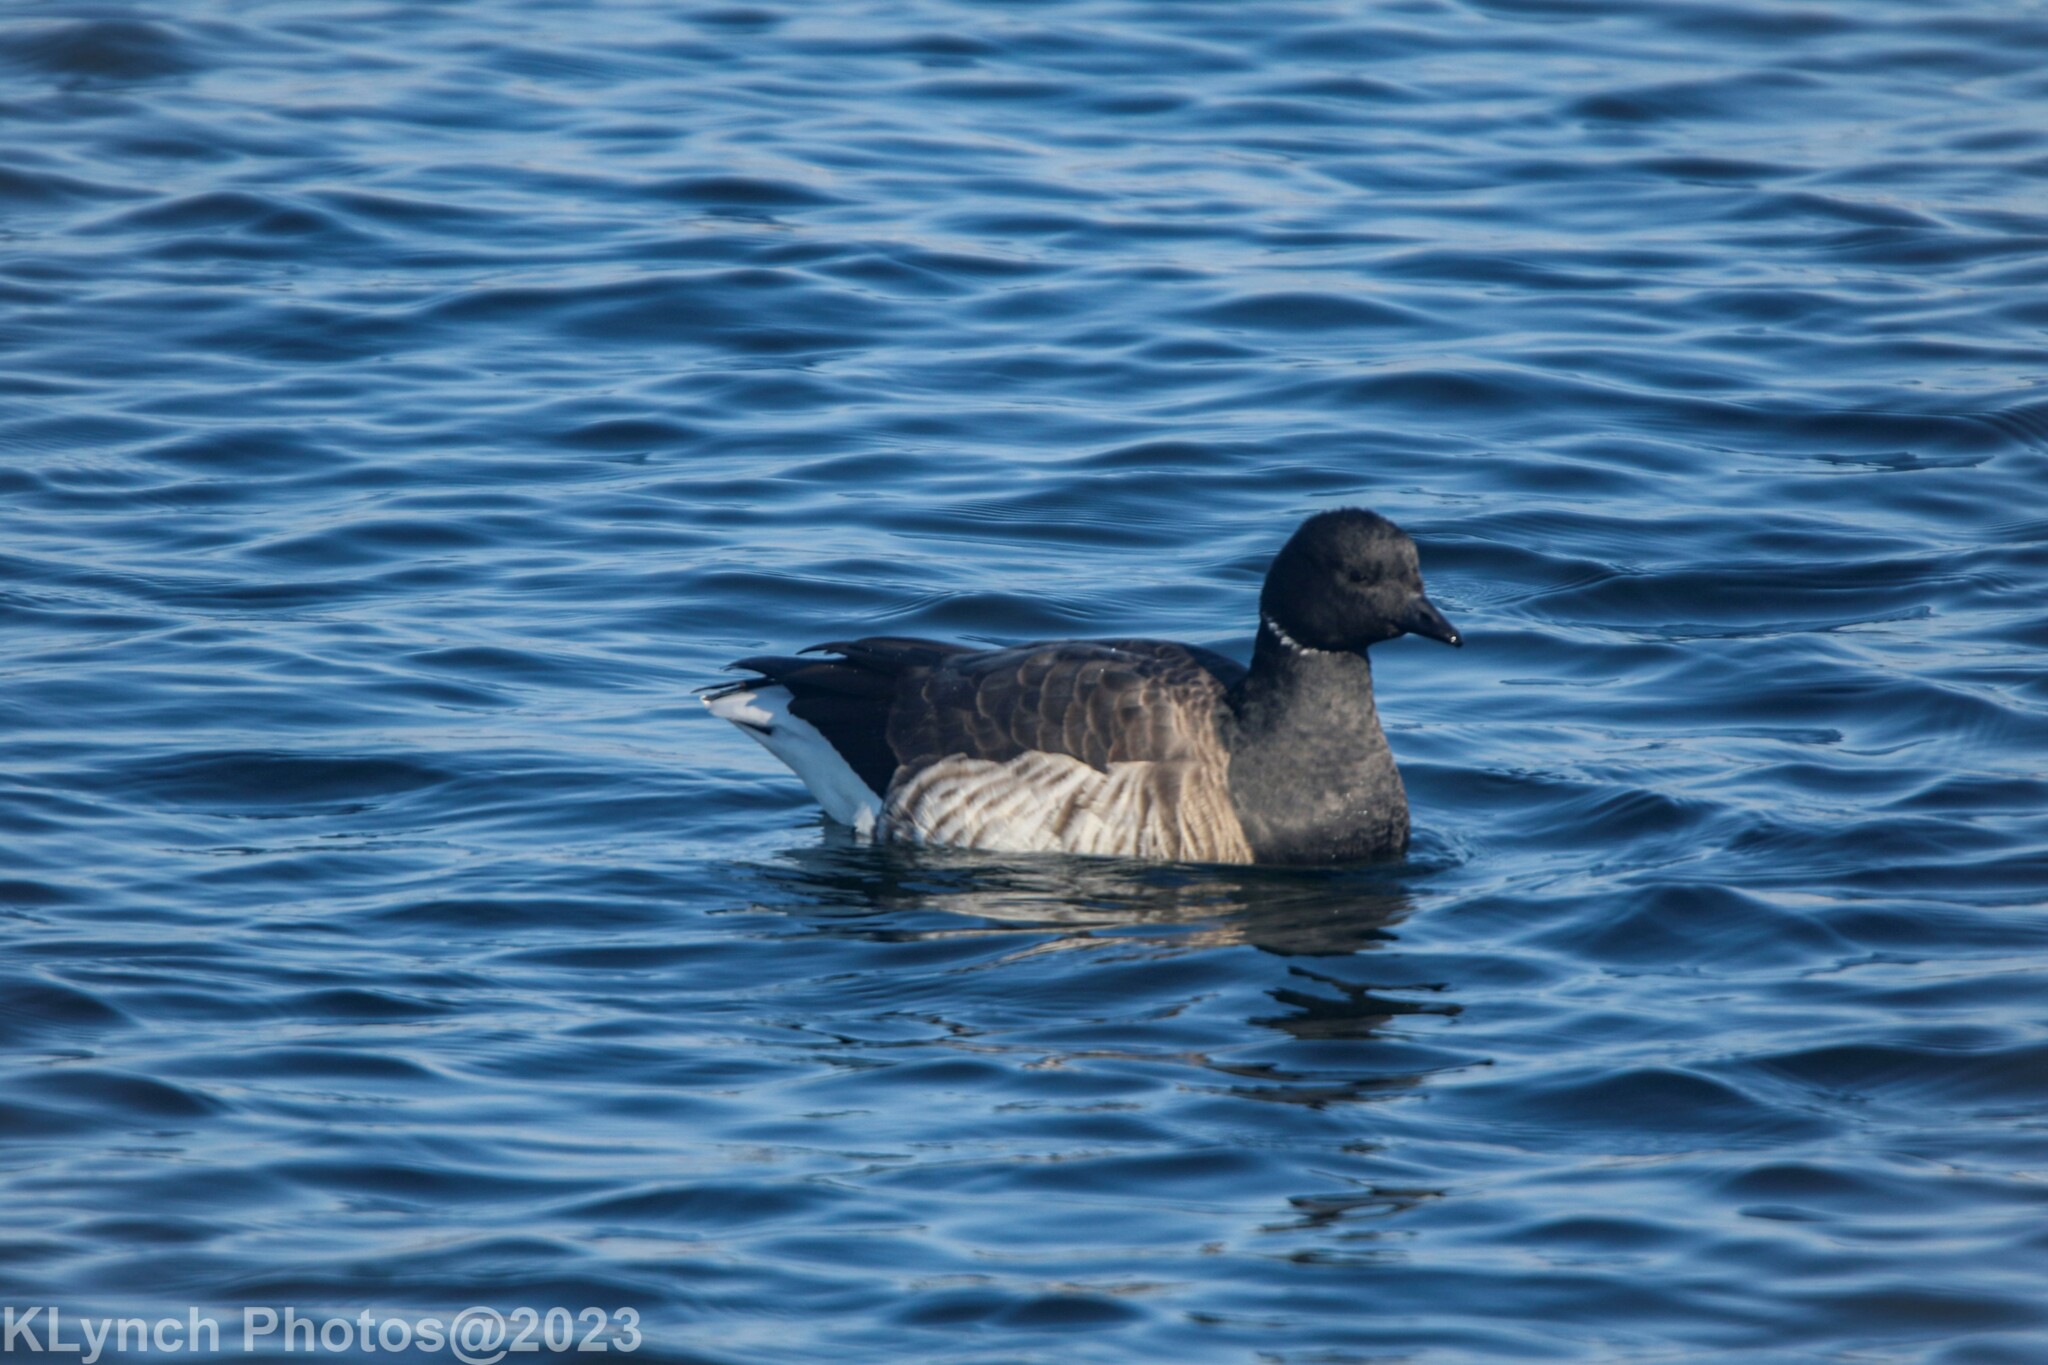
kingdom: Animalia
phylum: Chordata
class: Aves
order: Anseriformes
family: Anatidae
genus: Branta
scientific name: Branta bernicla
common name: Brant goose
